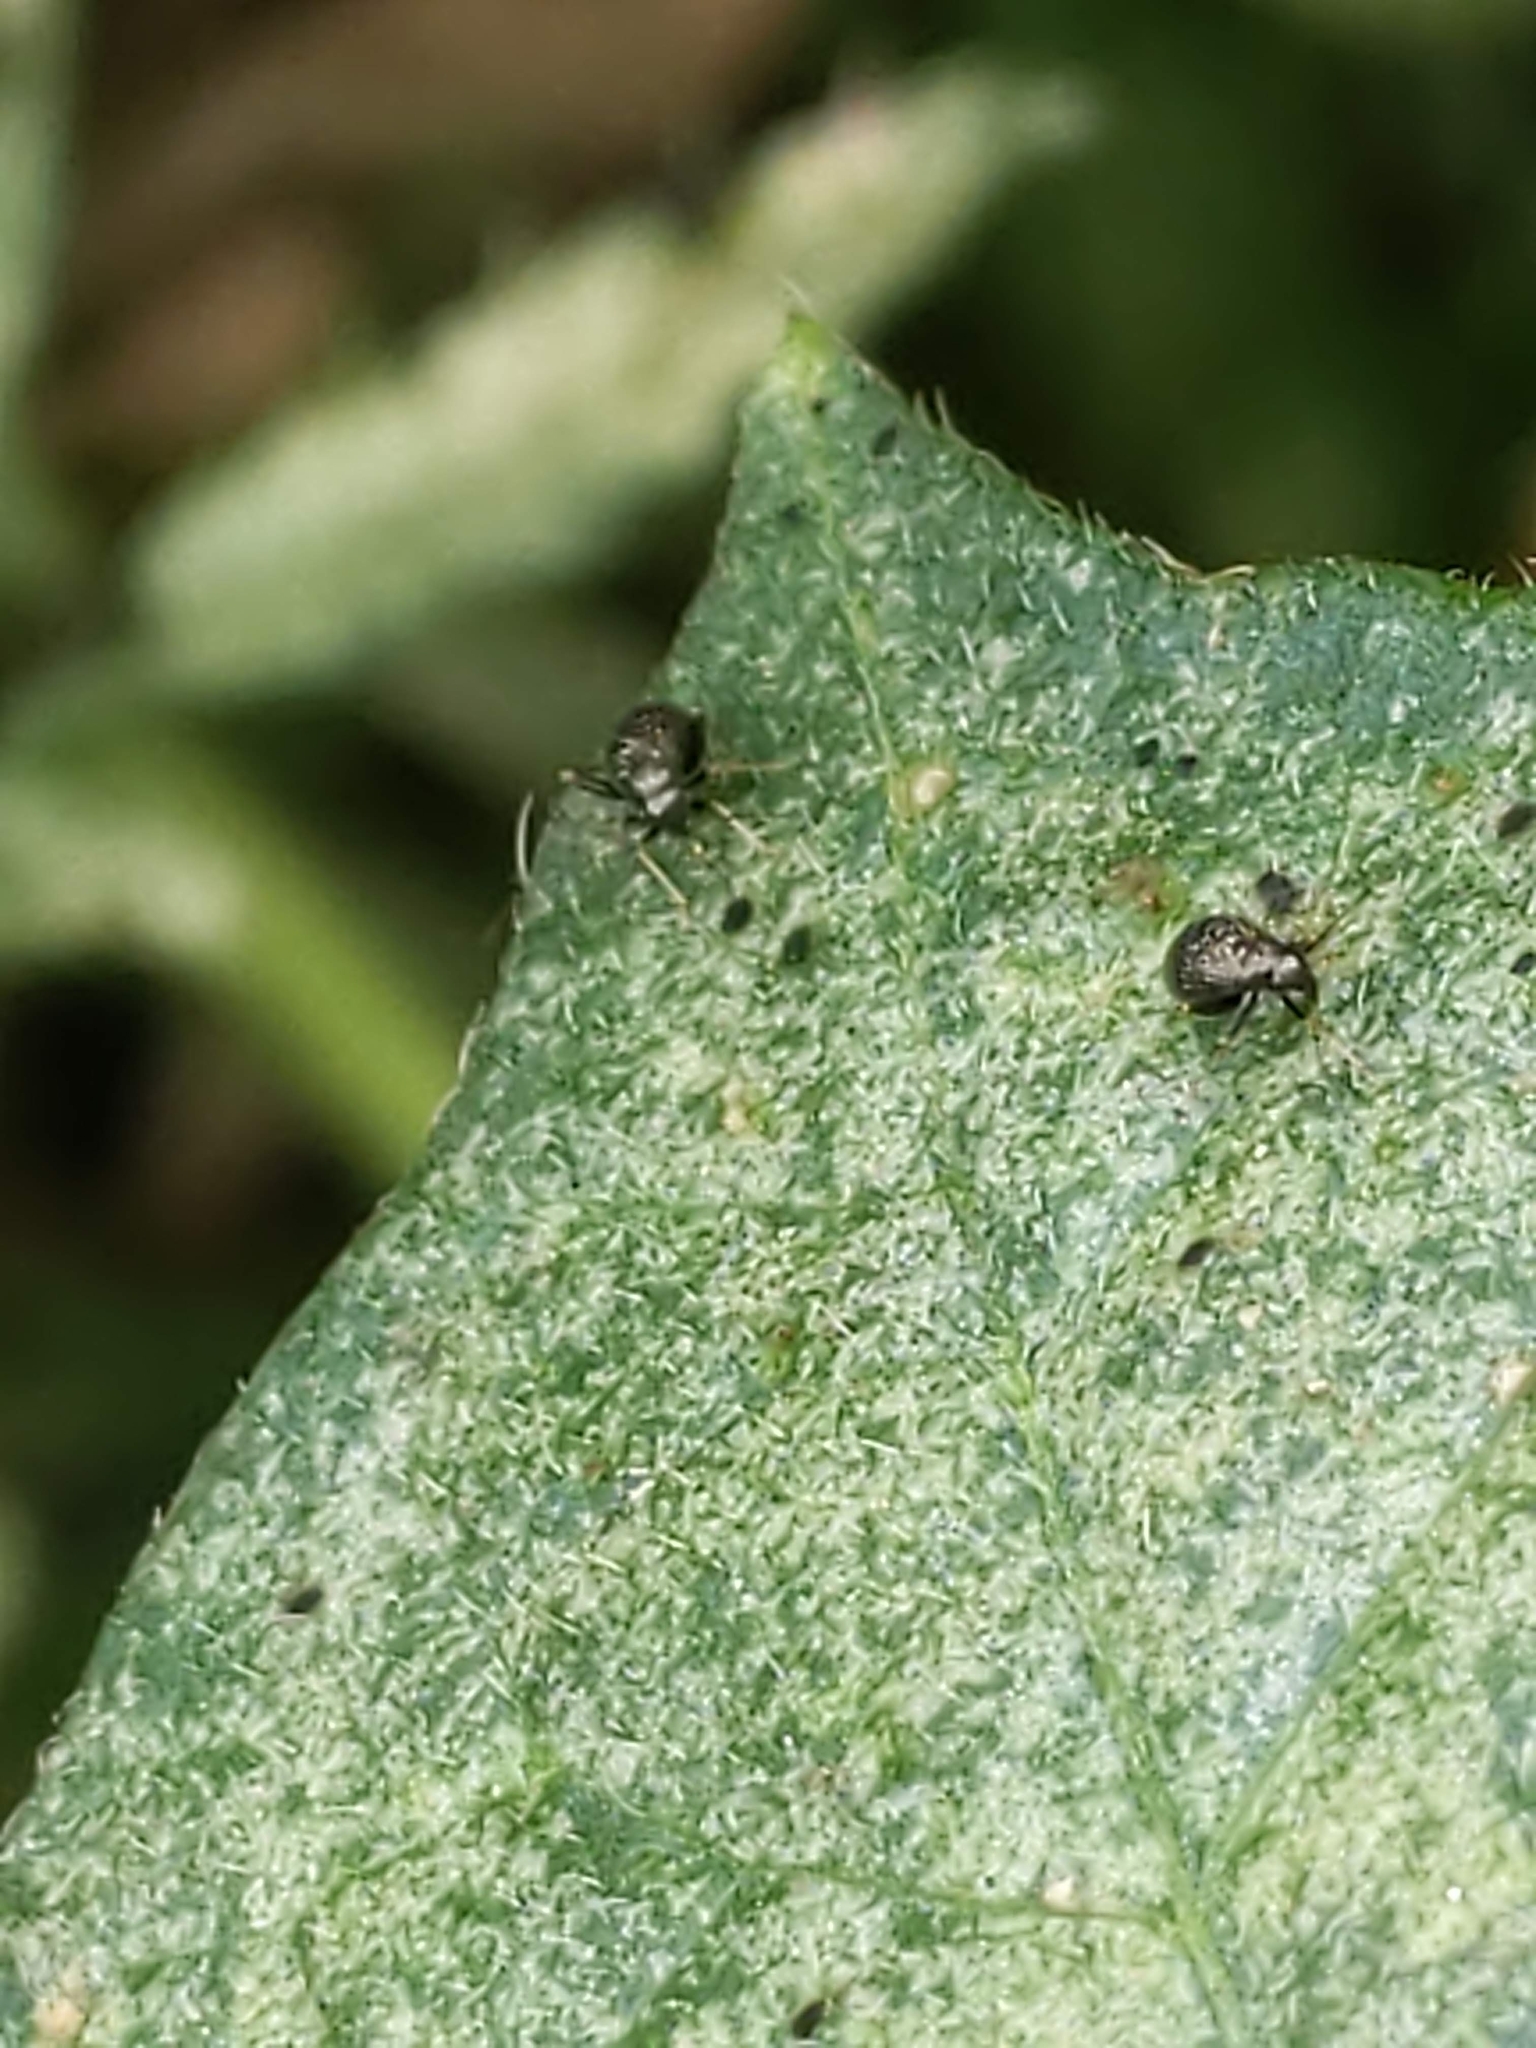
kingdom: Animalia
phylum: Arthropoda
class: Insecta
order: Hemiptera
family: Miridae
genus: Microtechnites
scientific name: Microtechnites bractatus
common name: Garden fleahopper
